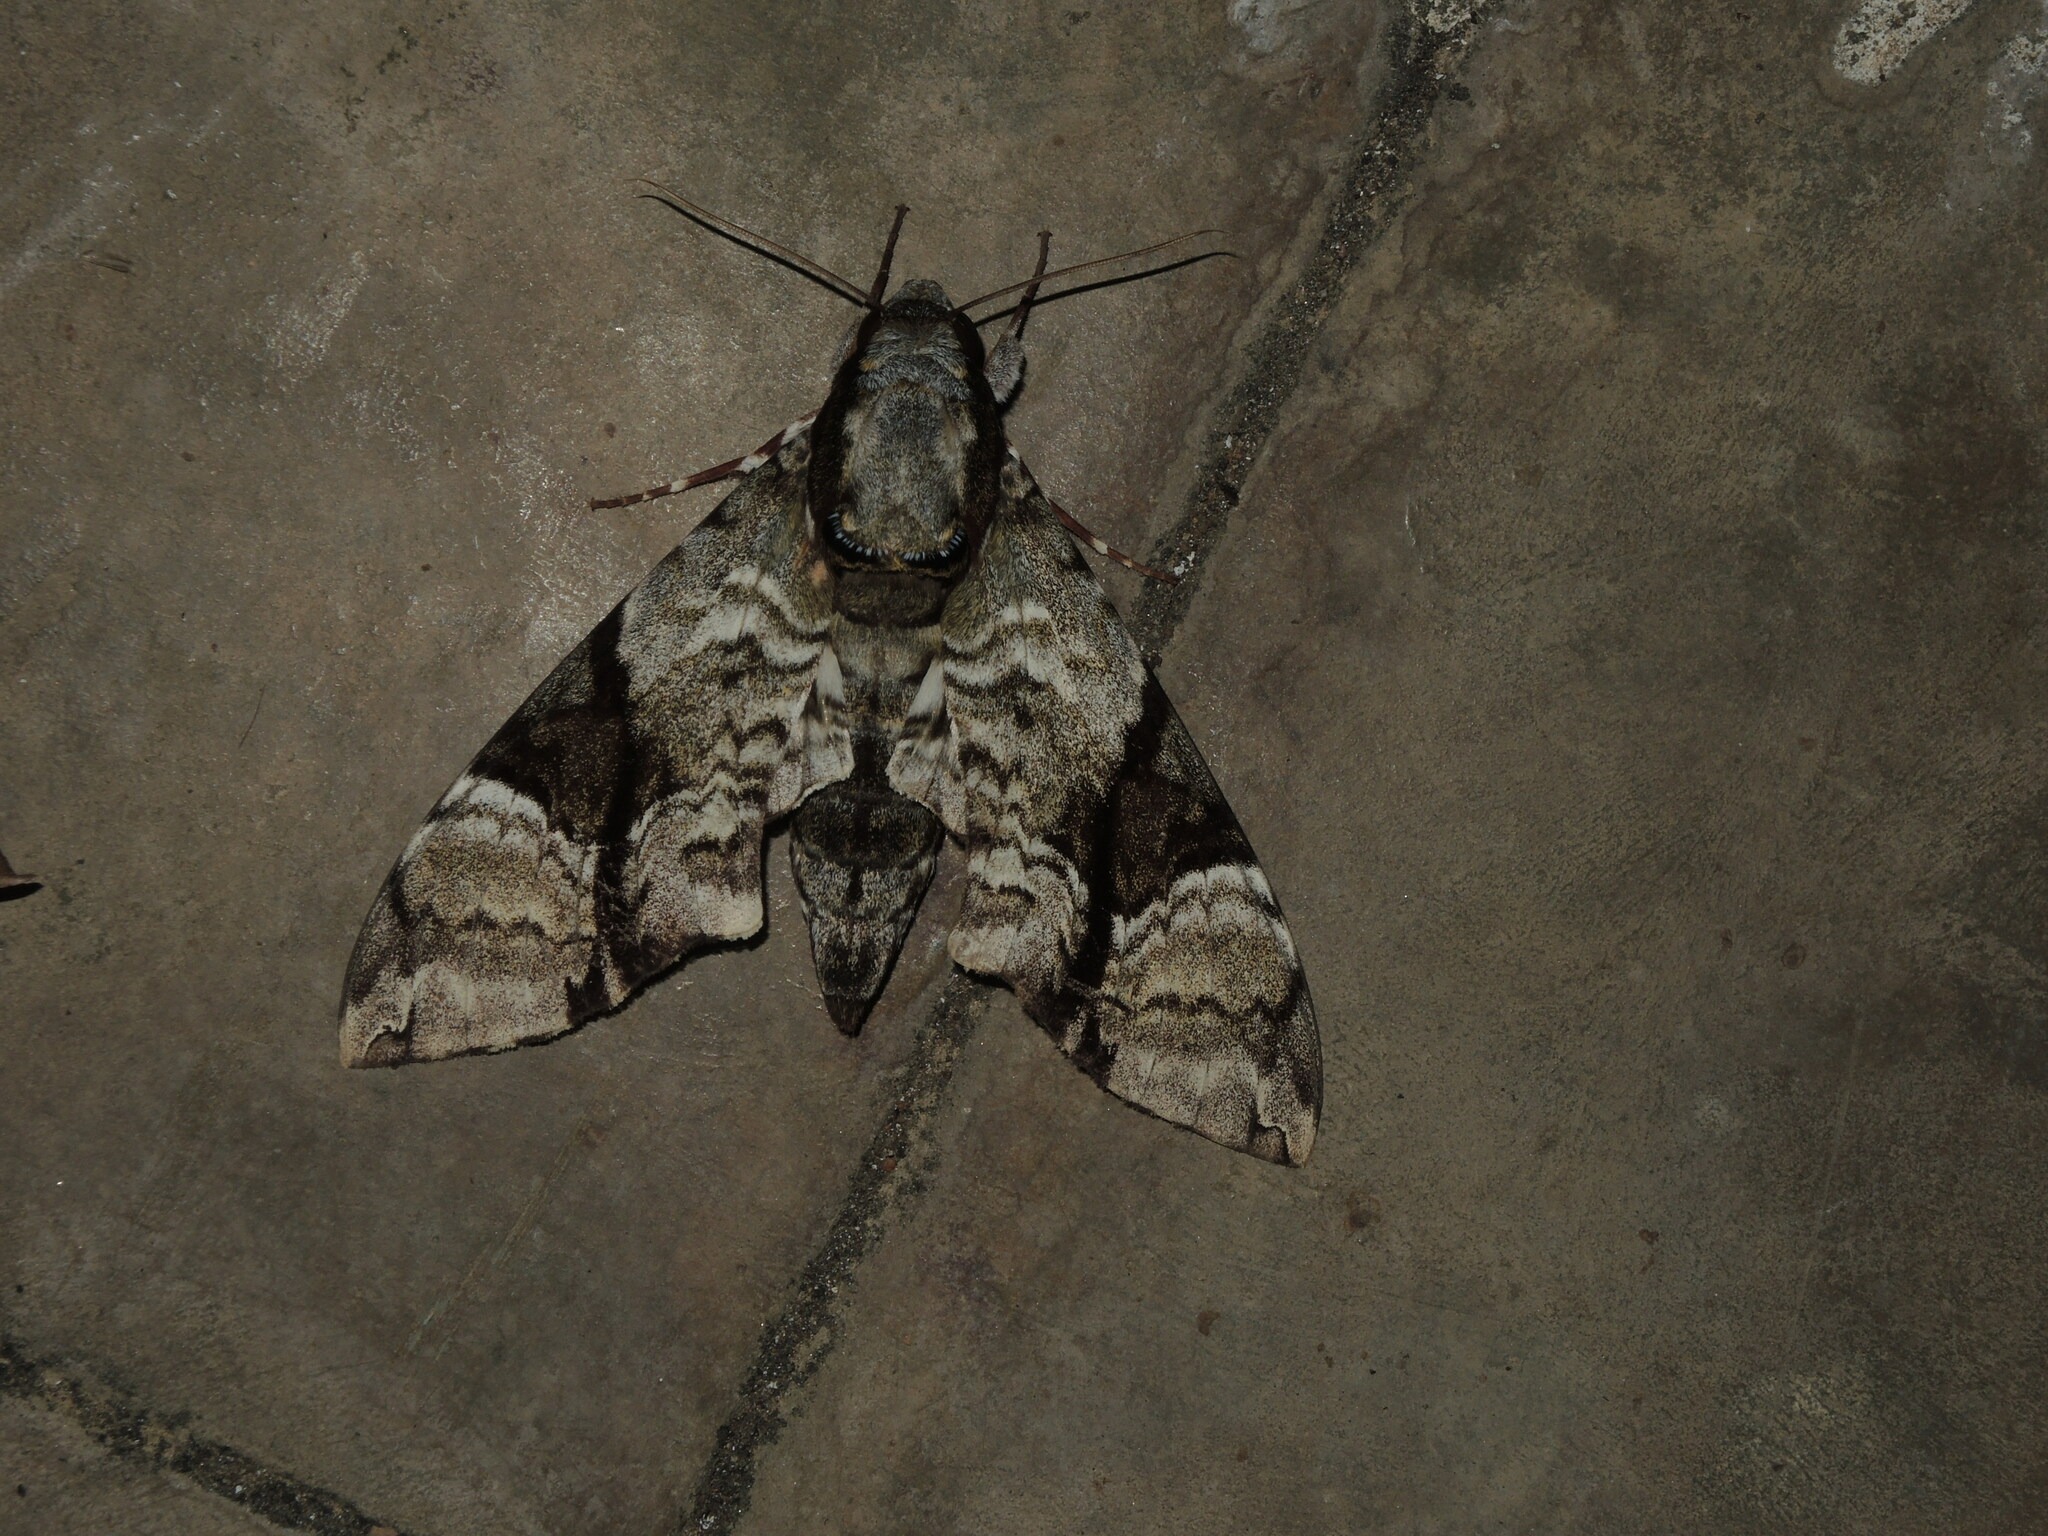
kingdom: Animalia
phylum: Arthropoda
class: Insecta
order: Lepidoptera
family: Sphingidae
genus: Megacorma
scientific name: Megacorma obliqua
